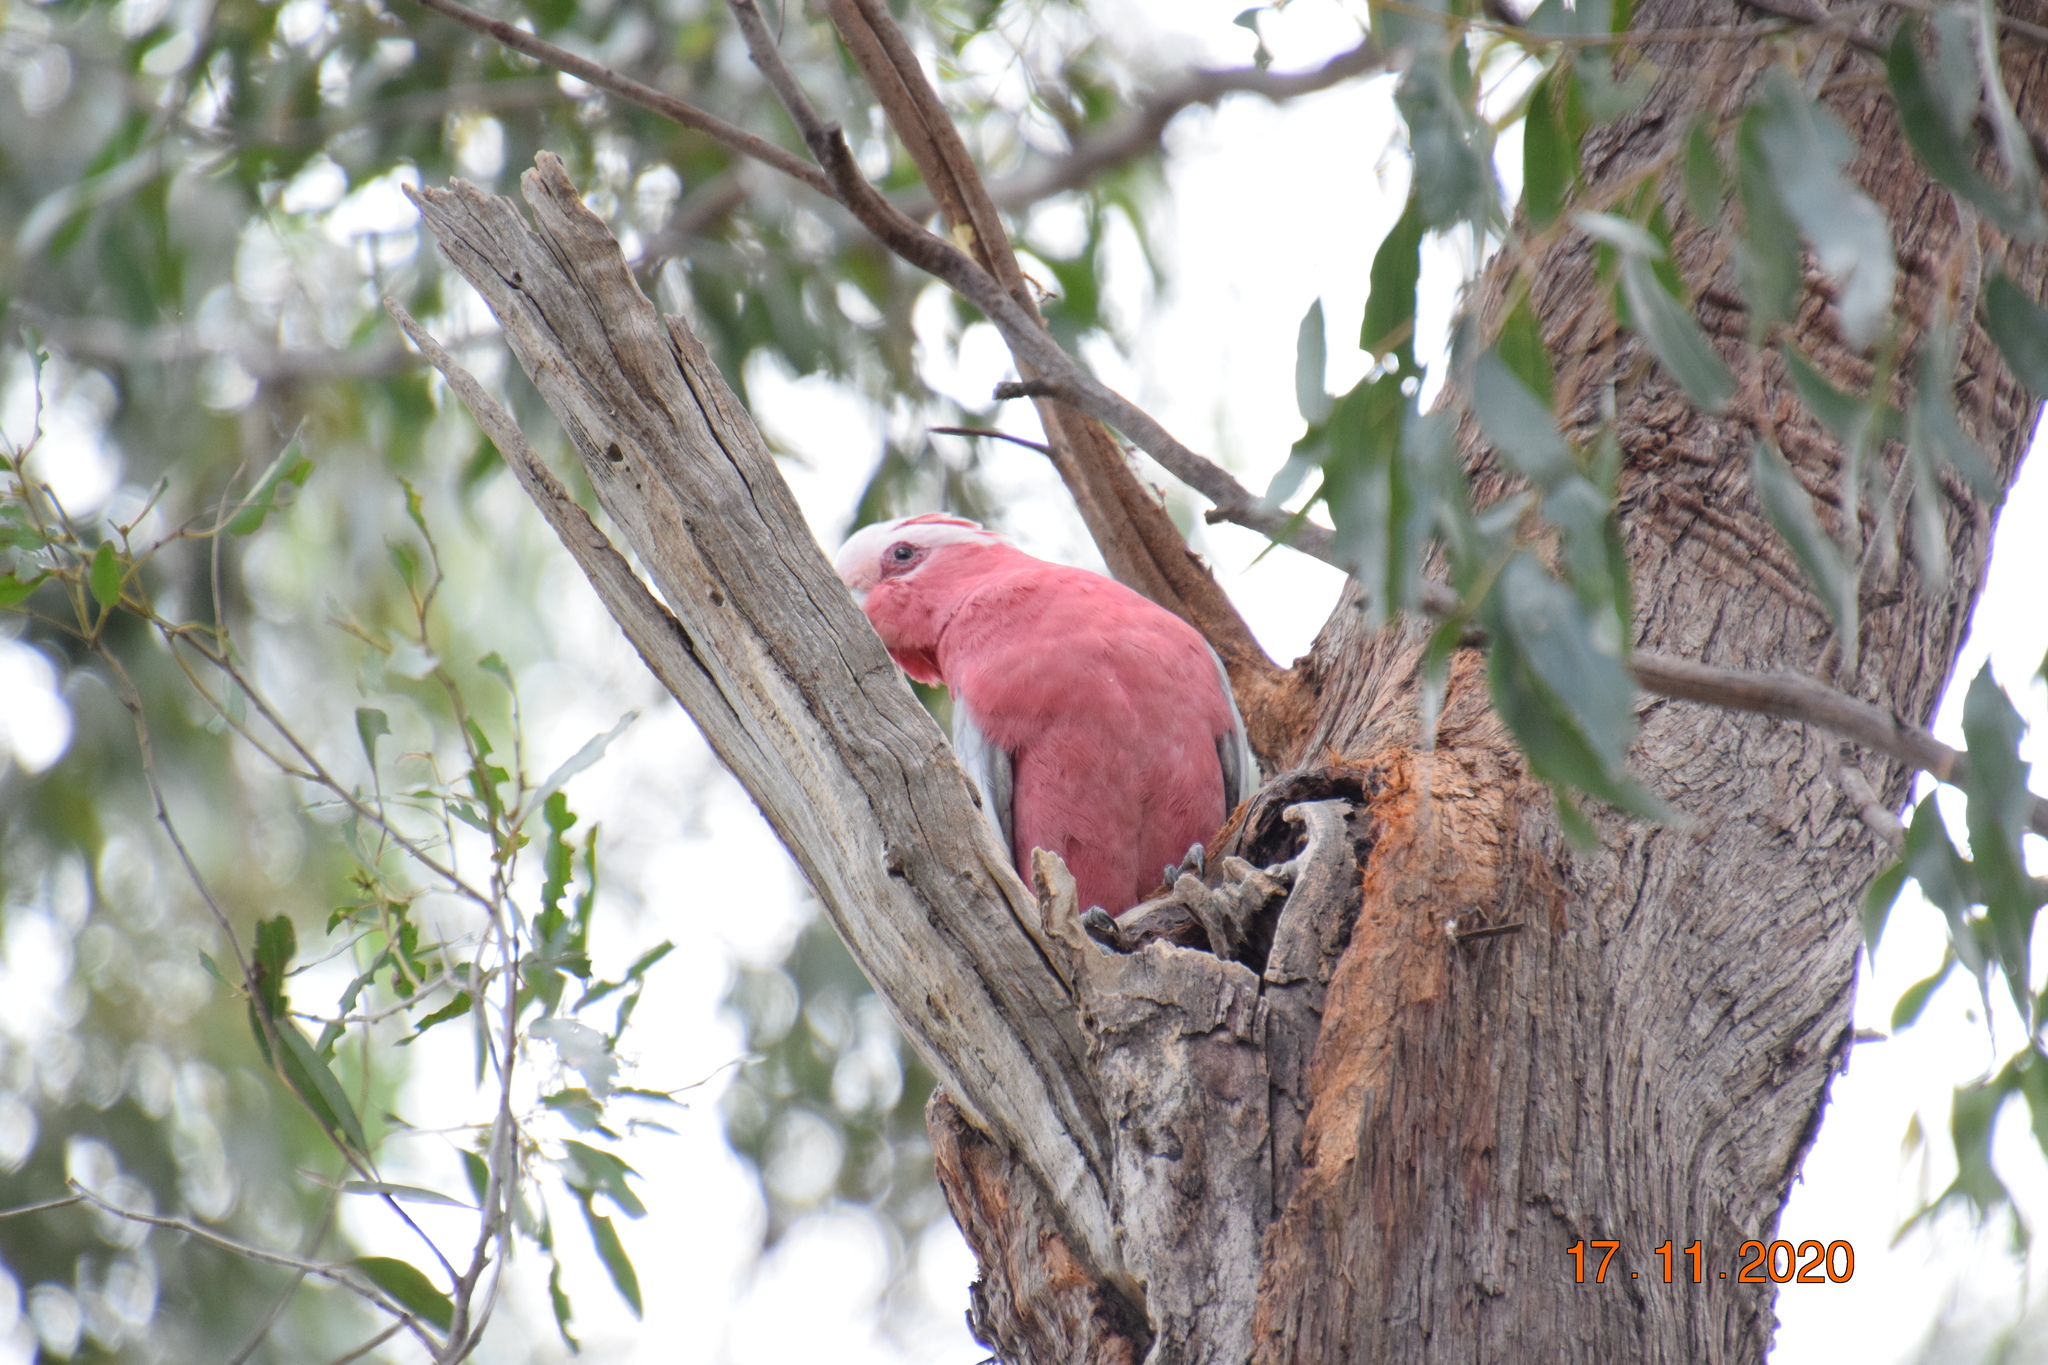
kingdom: Animalia
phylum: Chordata
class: Aves
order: Psittaciformes
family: Psittacidae
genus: Eolophus
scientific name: Eolophus roseicapilla
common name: Galah
